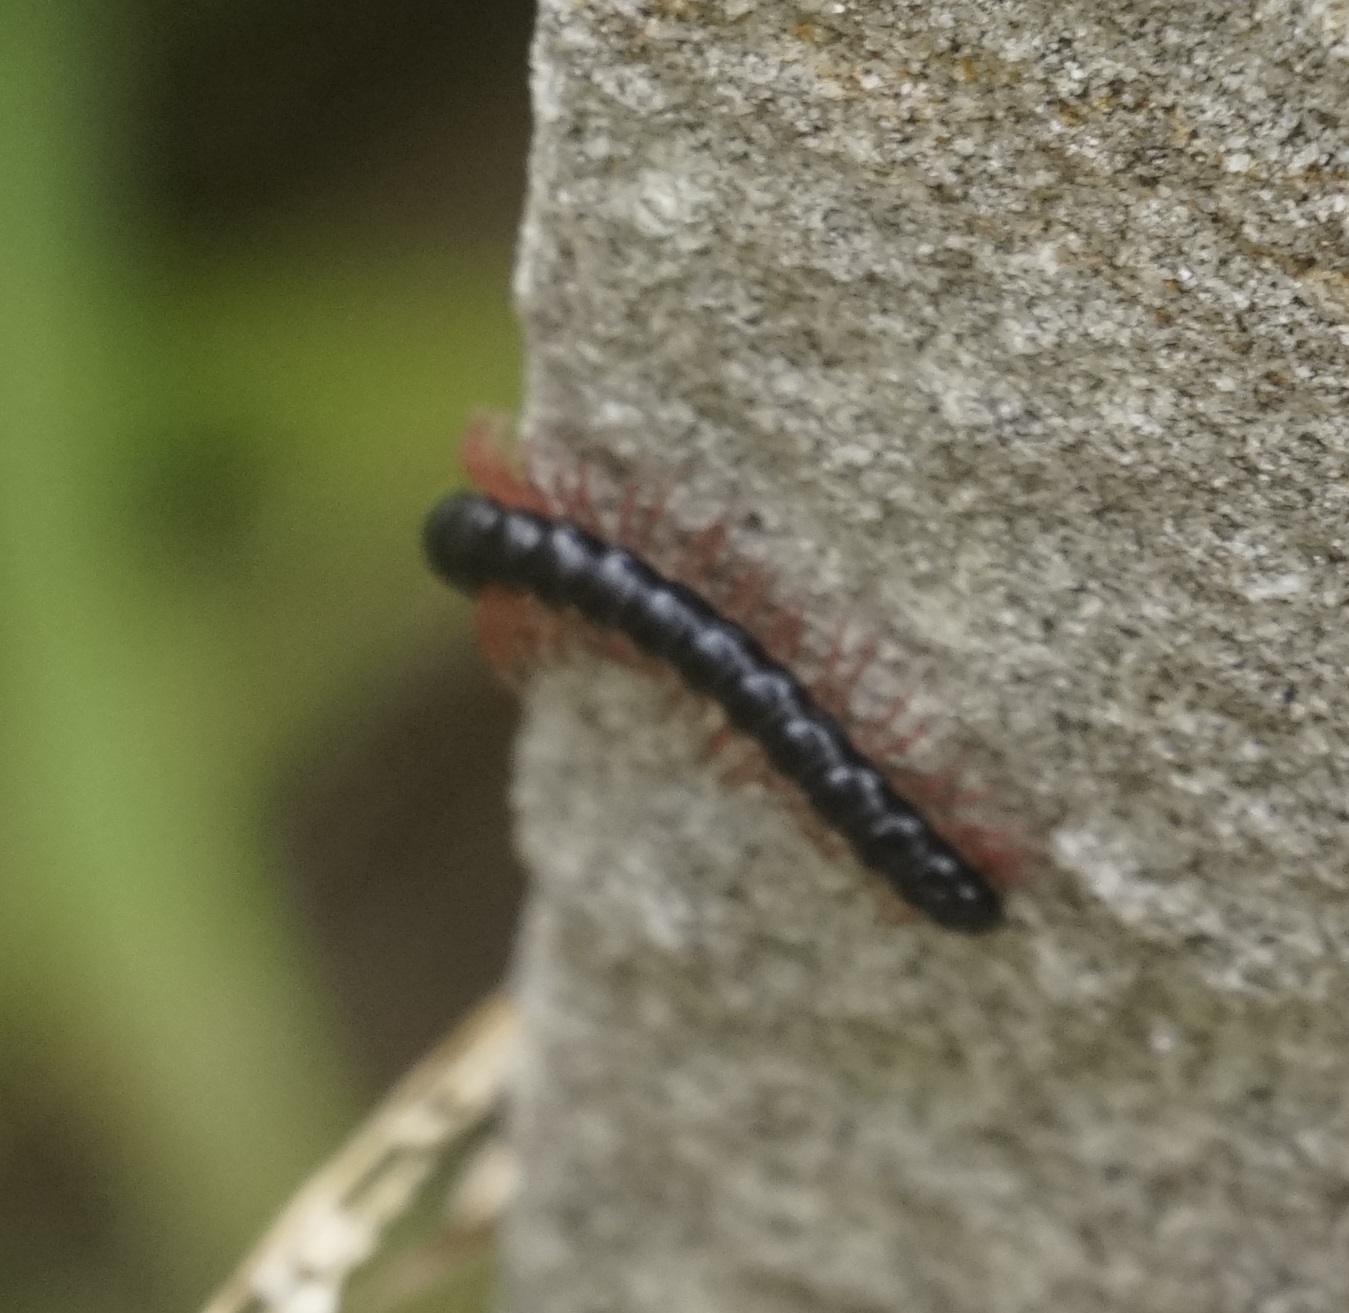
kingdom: Animalia
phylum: Arthropoda
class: Diplopoda
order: Polydesmida
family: Paradoxosomatidae
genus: Heterocladosoma
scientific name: Heterocladosoma
